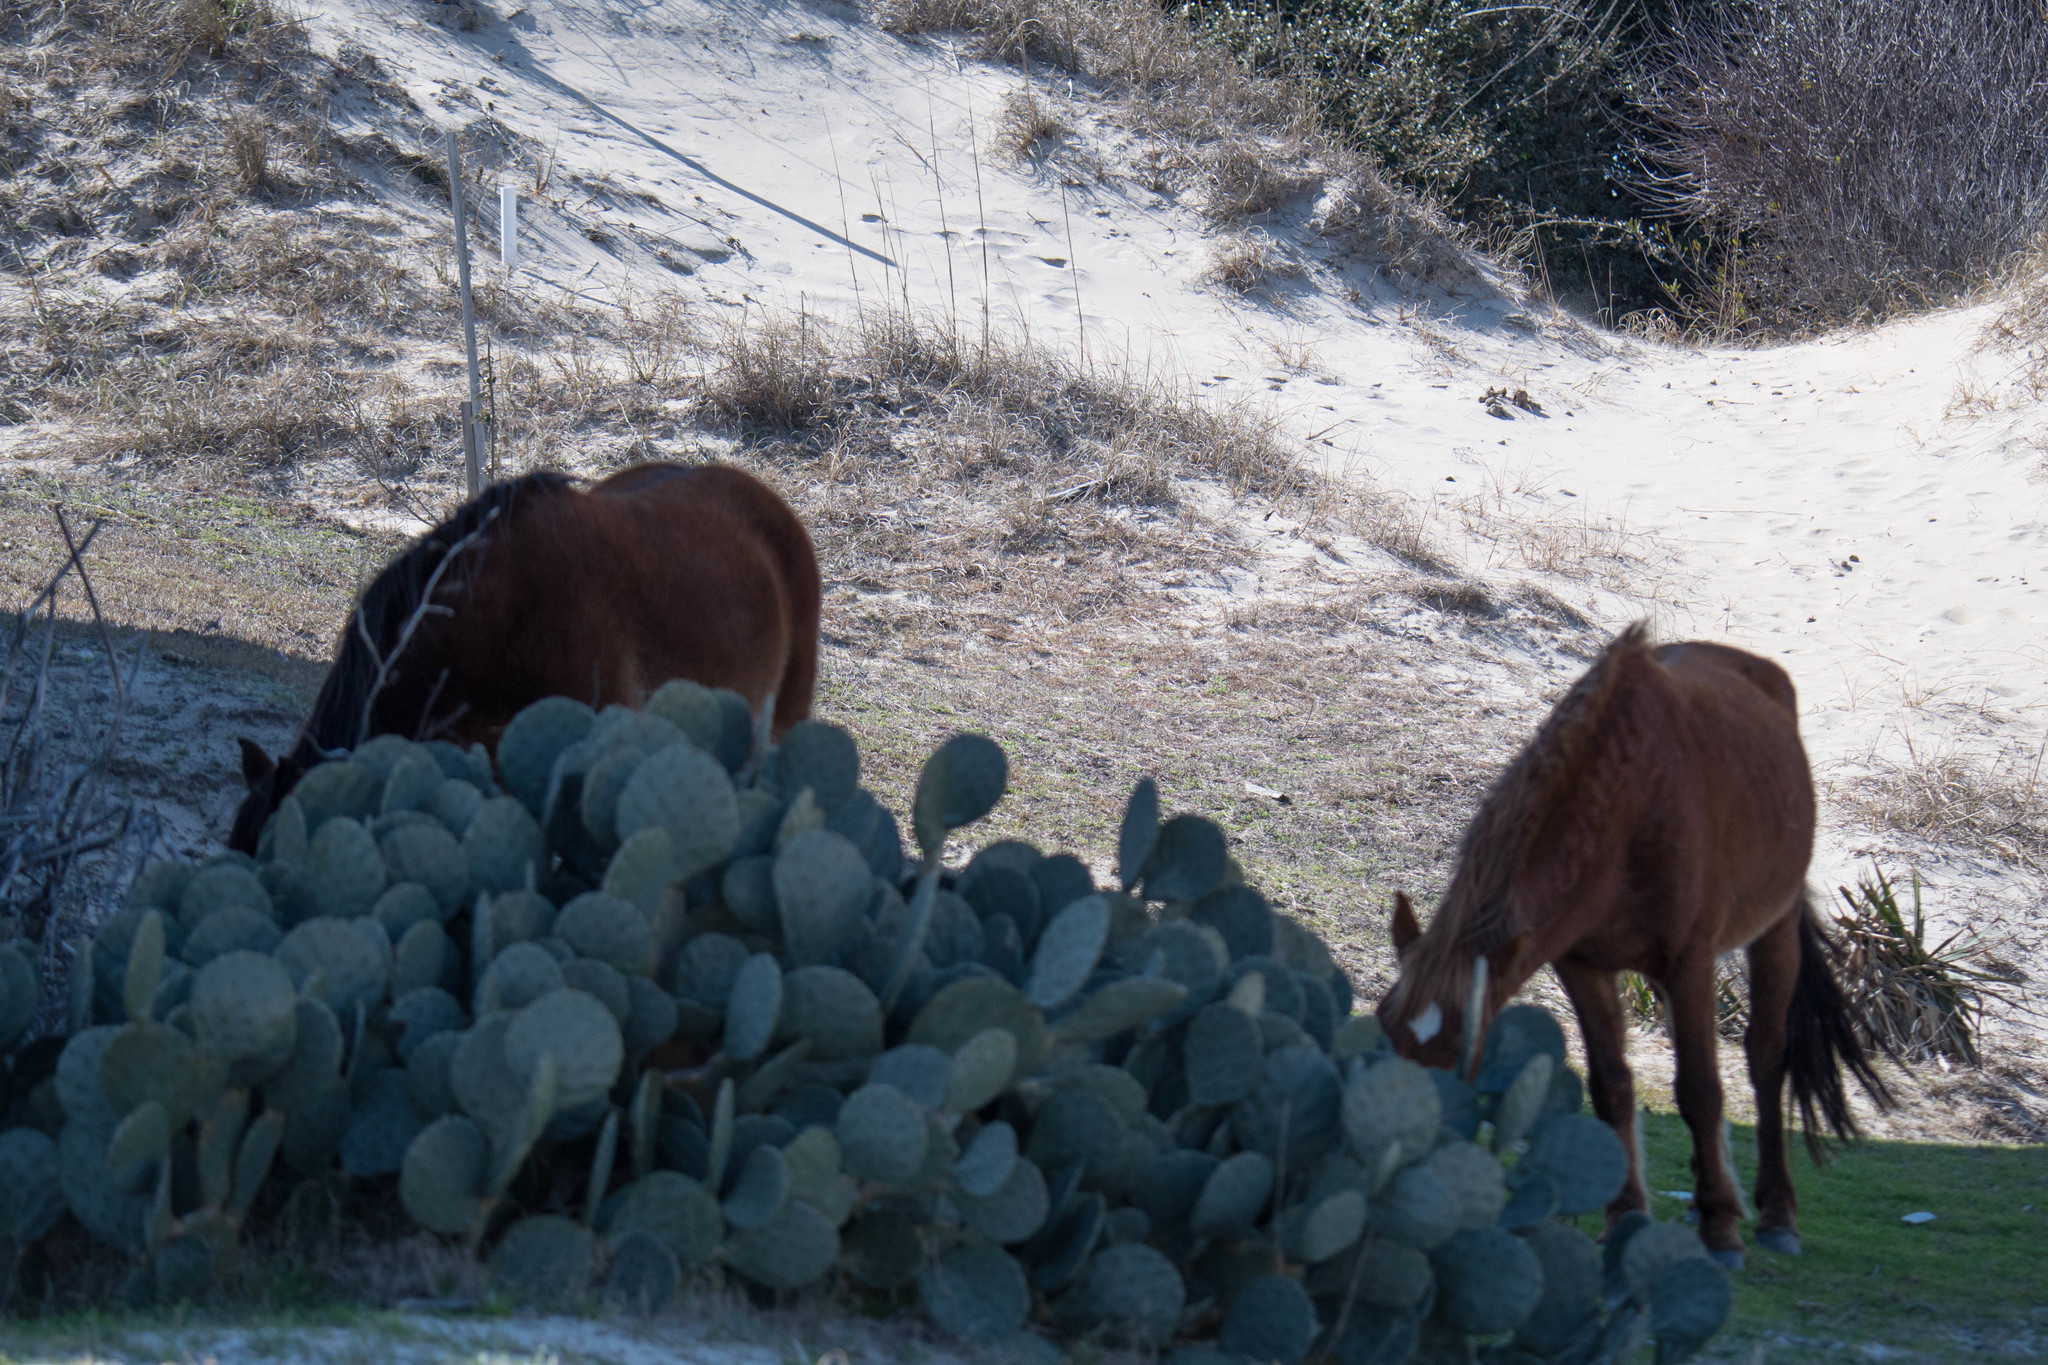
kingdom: Animalia
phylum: Chordata
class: Mammalia
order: Perissodactyla
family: Equidae
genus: Equus
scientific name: Equus caballus
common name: Horse
